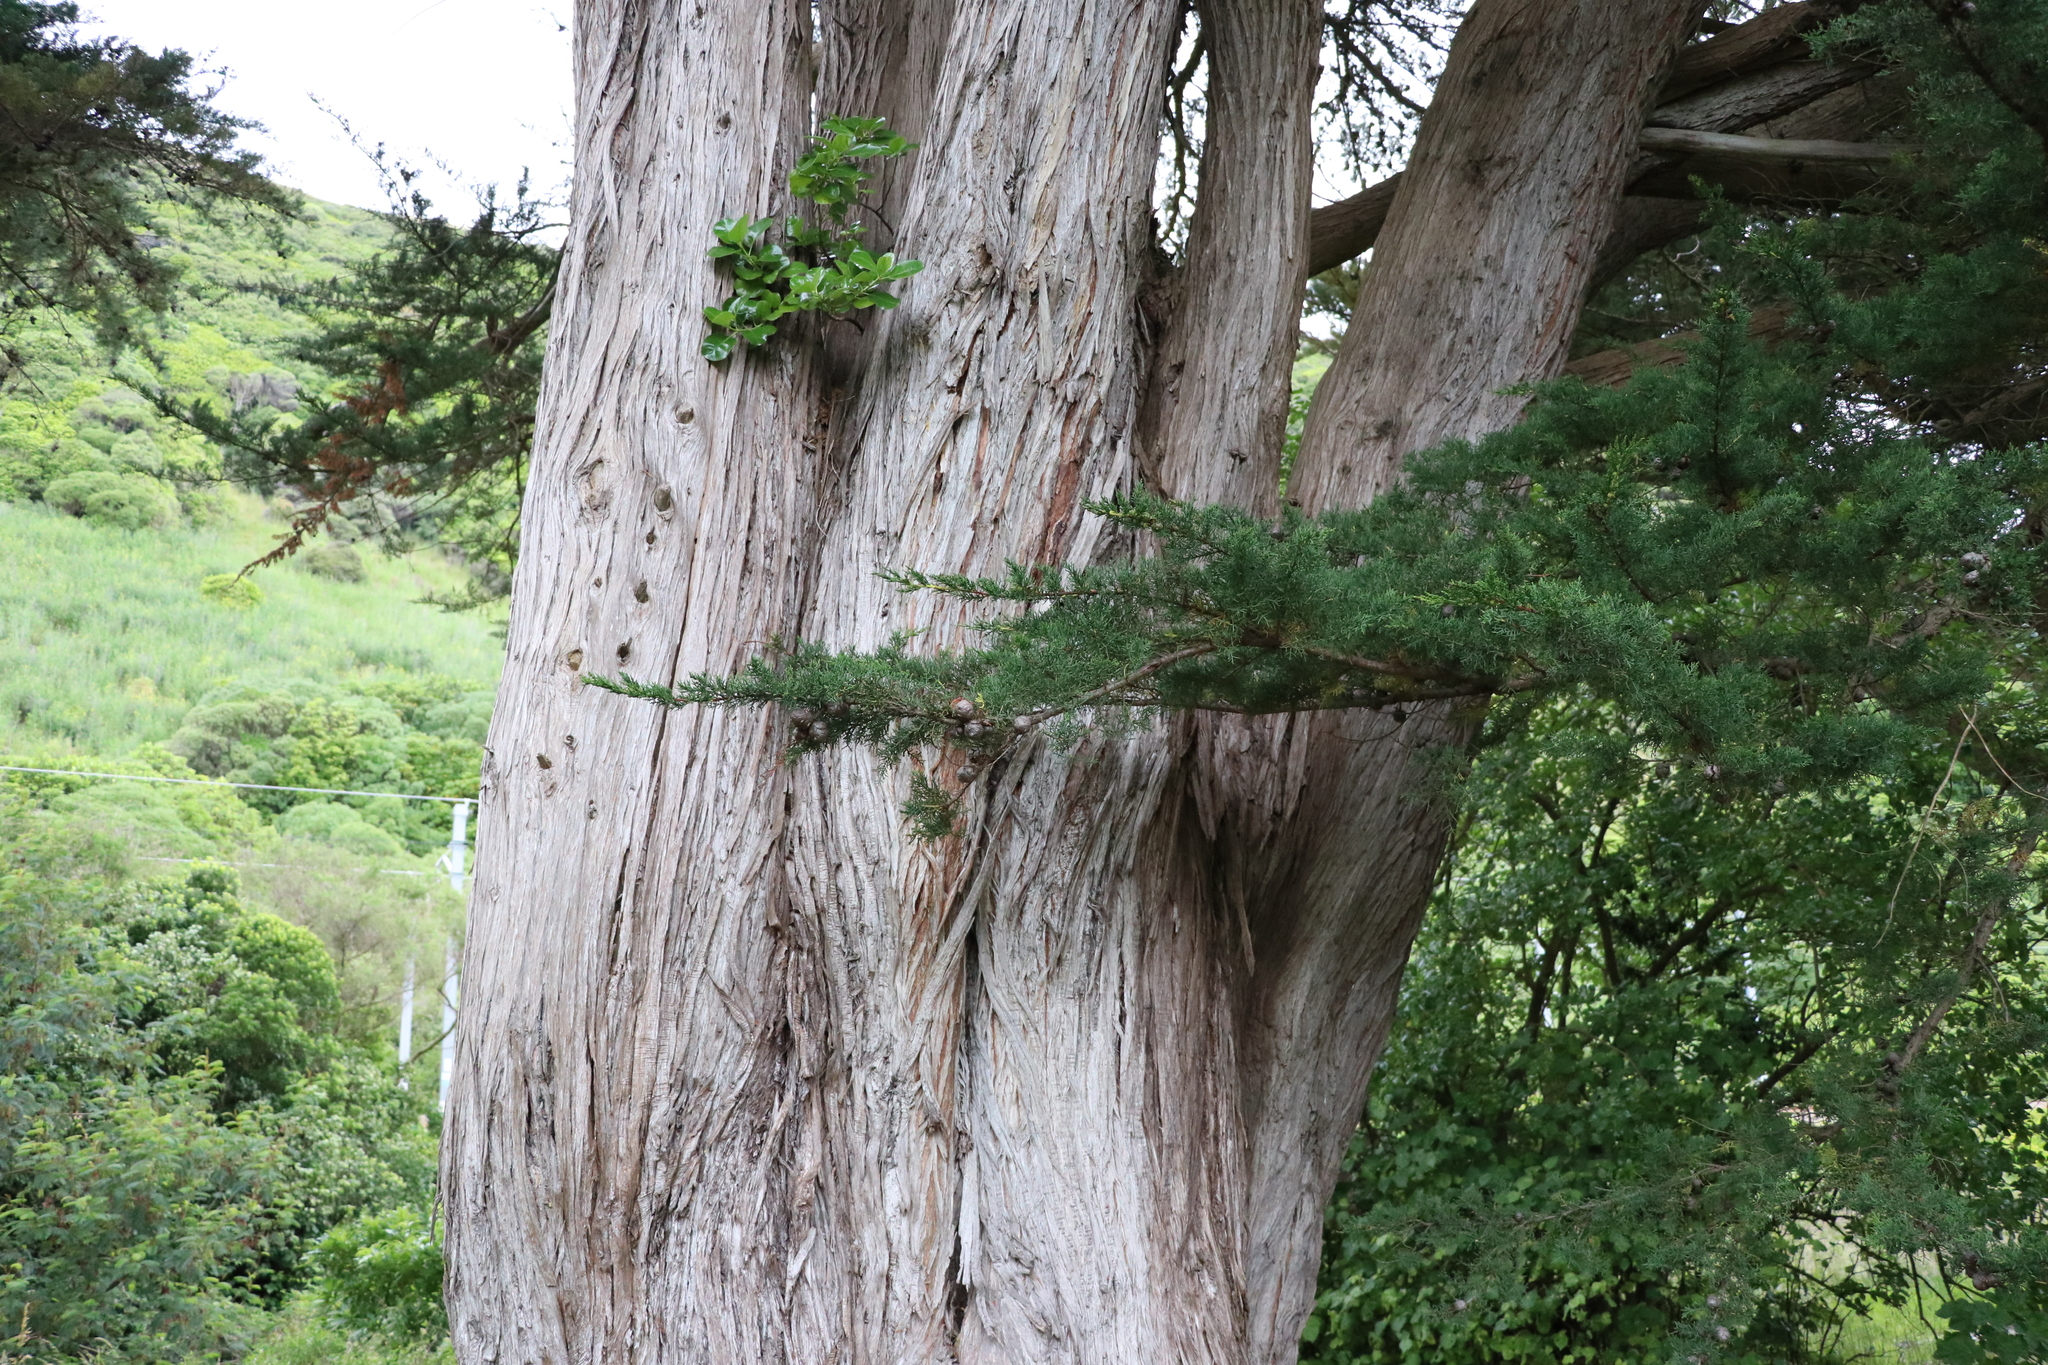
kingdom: Plantae
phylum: Tracheophyta
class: Pinopsida
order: Pinales
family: Cupressaceae
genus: Cupressus
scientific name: Cupressus macrocarpa
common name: Monterey cypress
